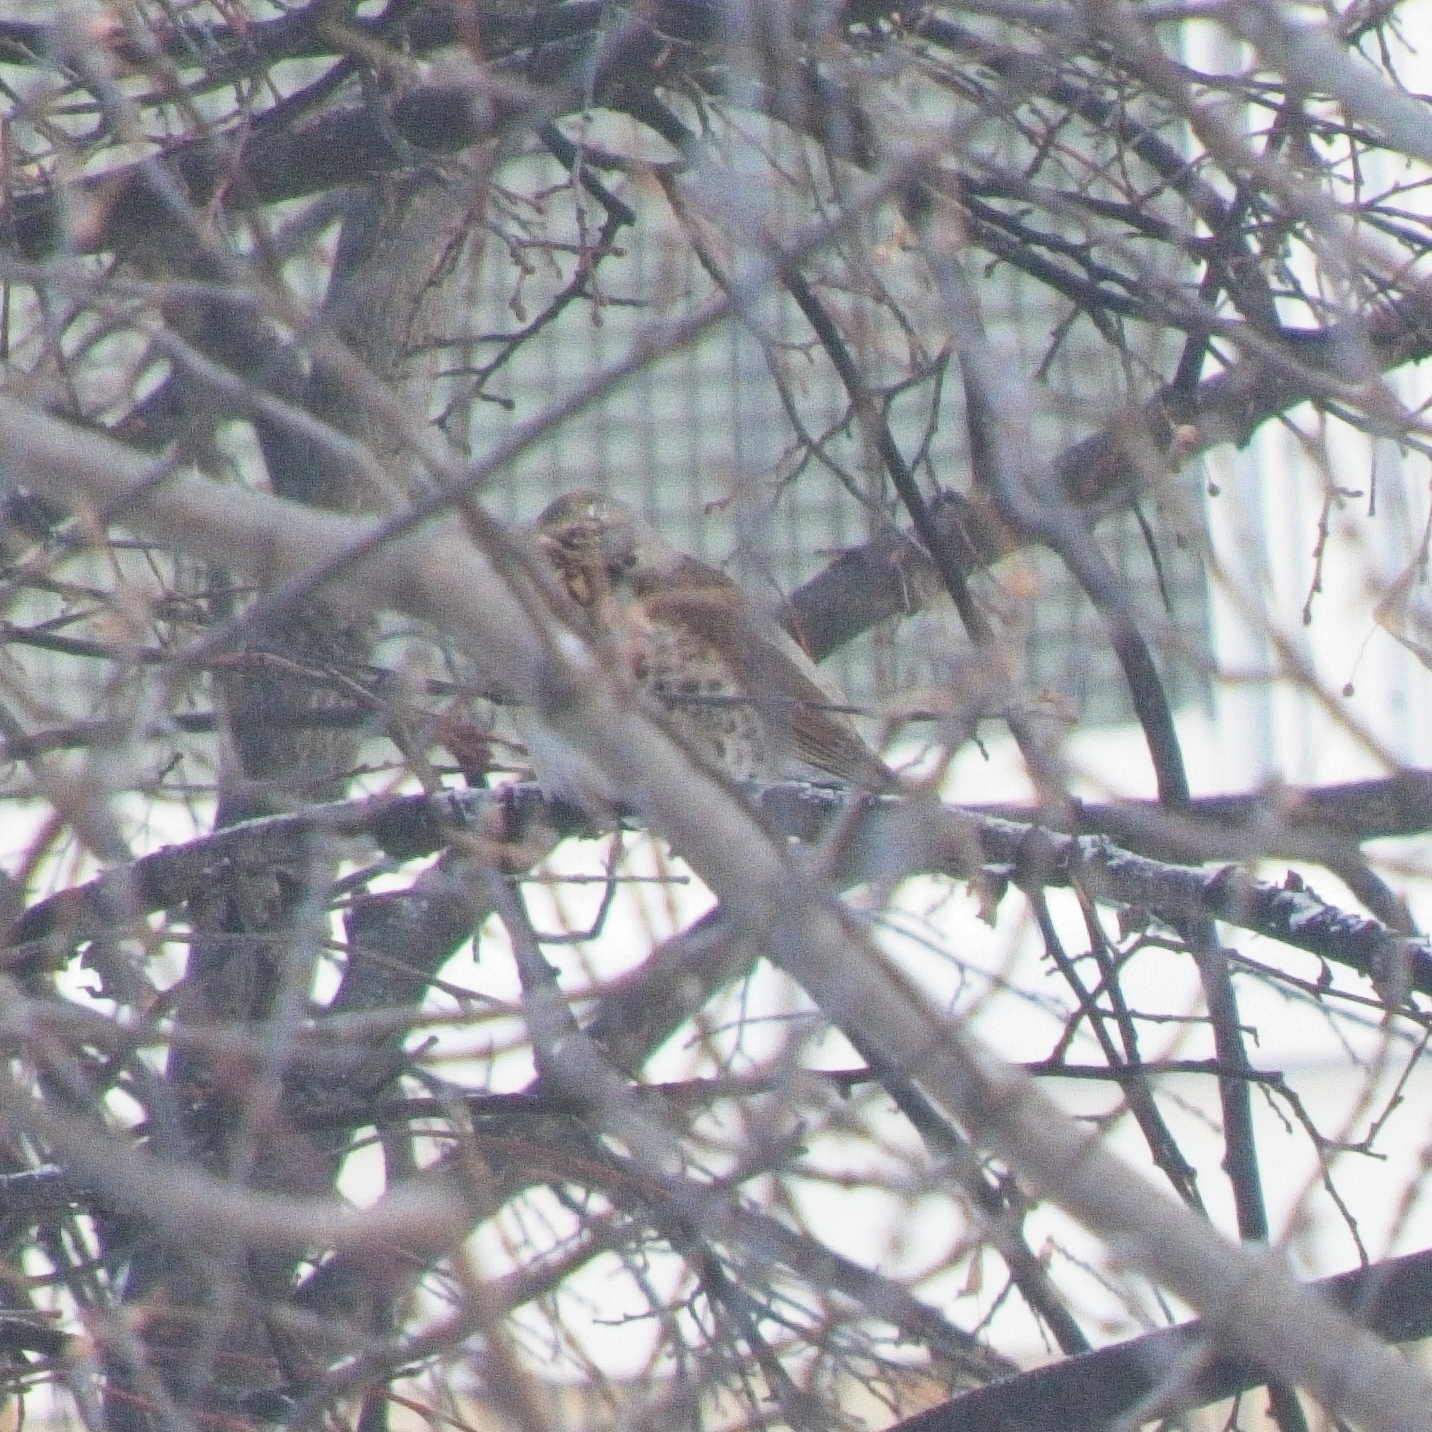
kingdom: Animalia
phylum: Chordata
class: Aves
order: Passeriformes
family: Turdidae
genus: Turdus
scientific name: Turdus pilaris
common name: Fieldfare
